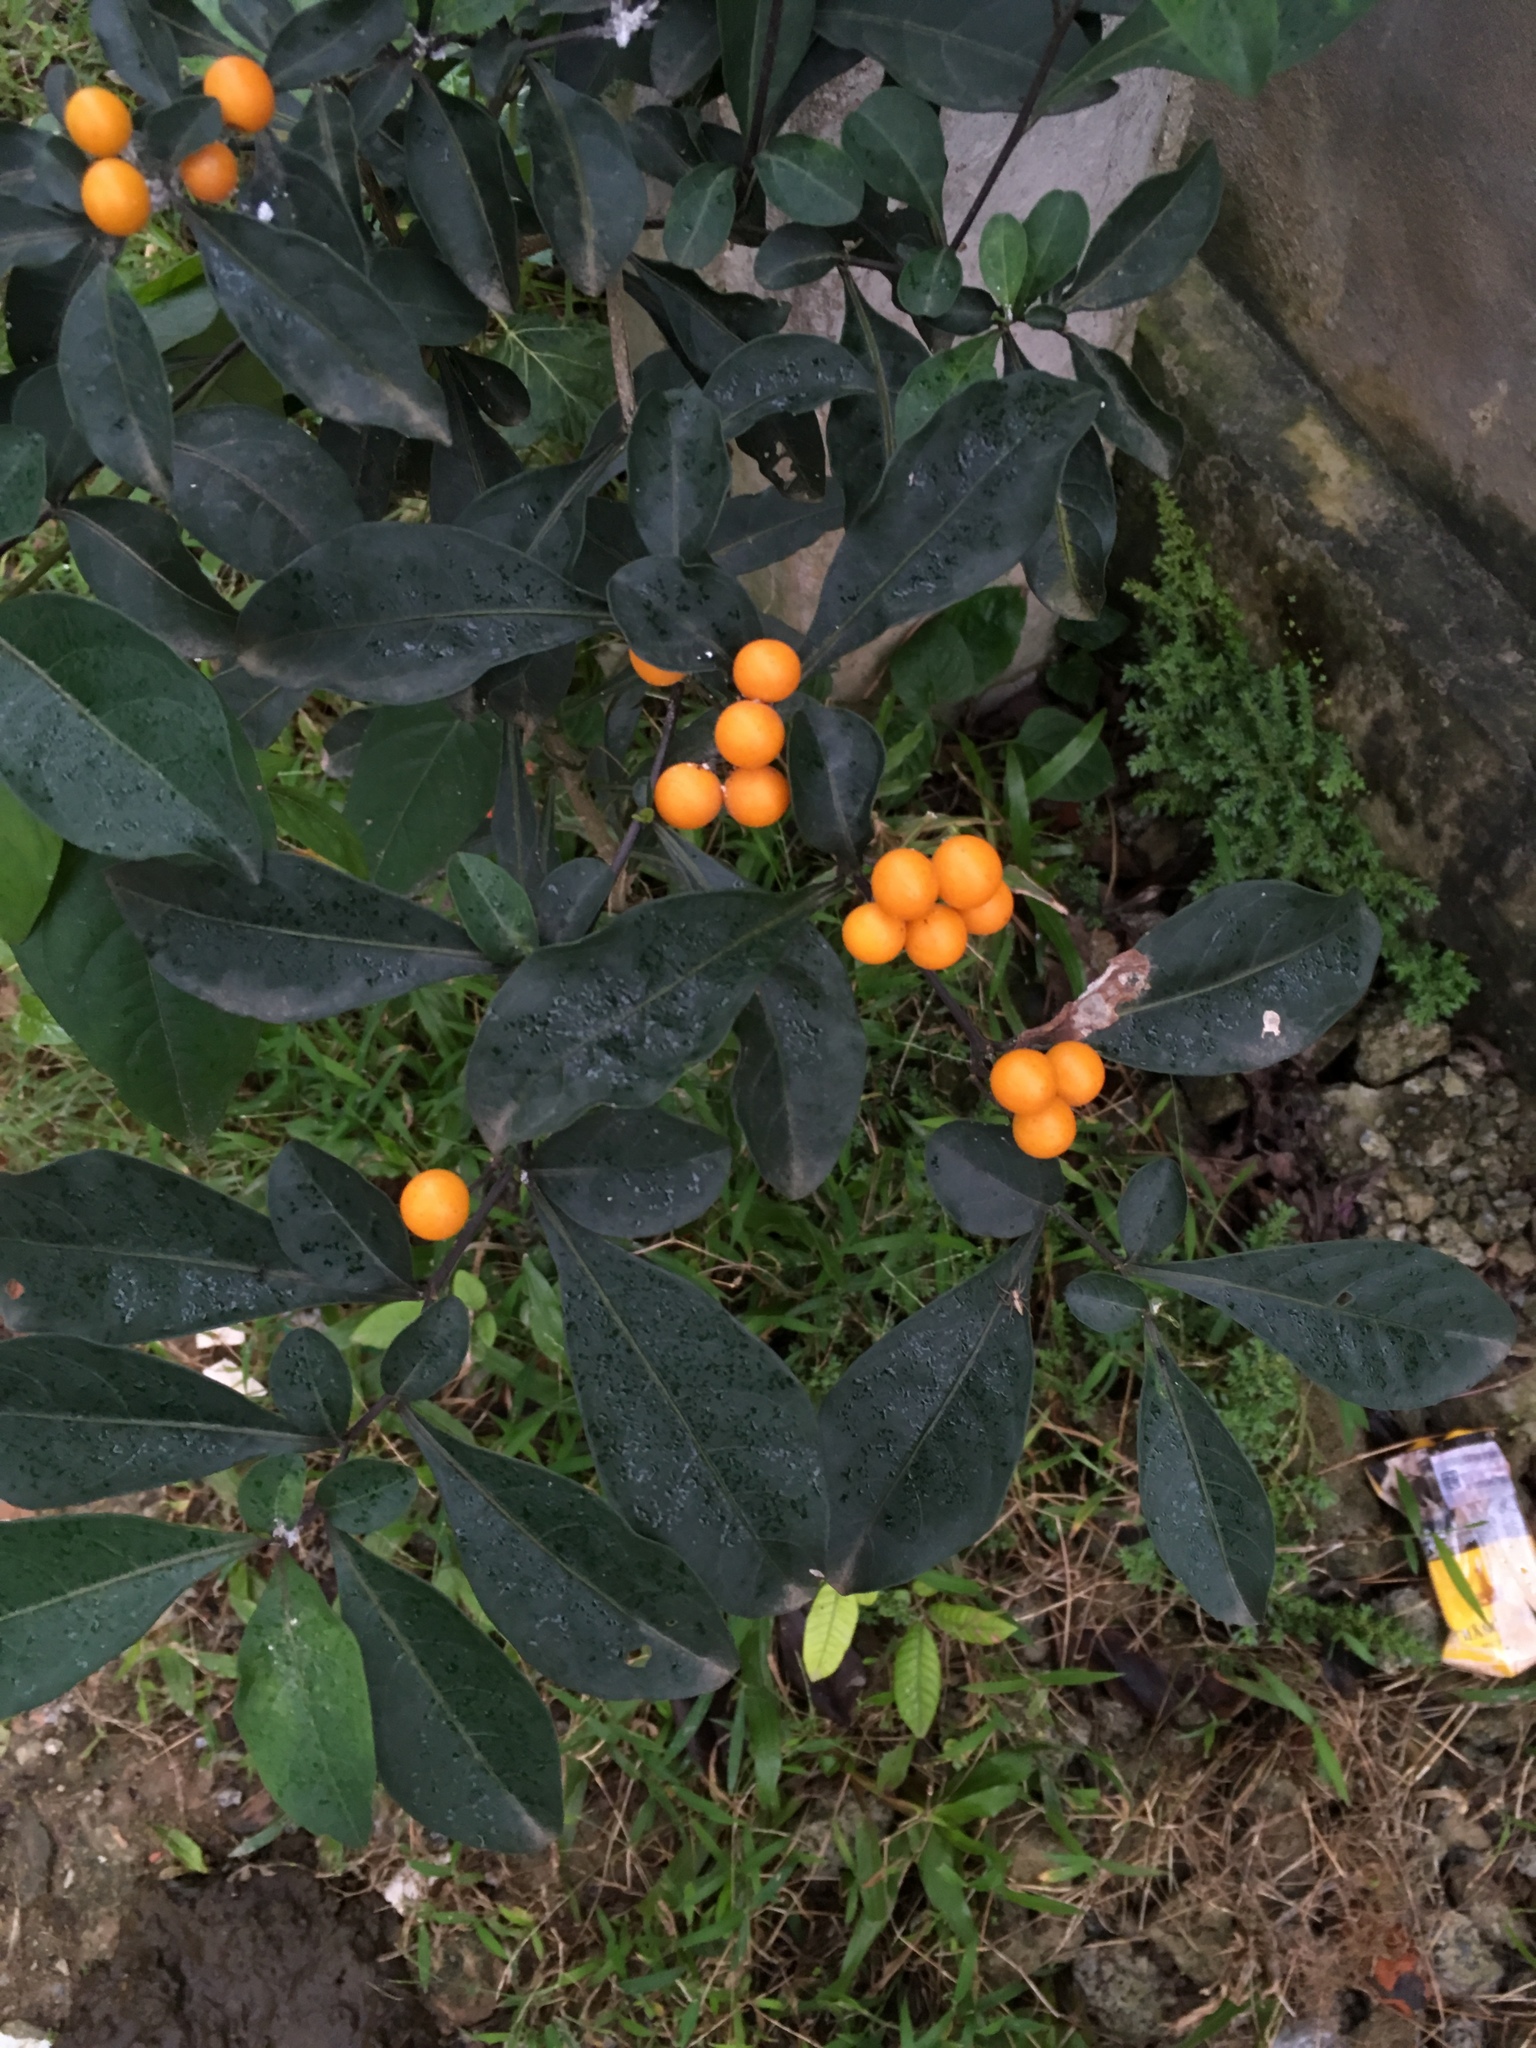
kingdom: Plantae
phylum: Tracheophyta
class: Magnoliopsida
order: Solanales
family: Solanaceae
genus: Solanum
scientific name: Solanum diphyllum
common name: Twoleaf nightshade
